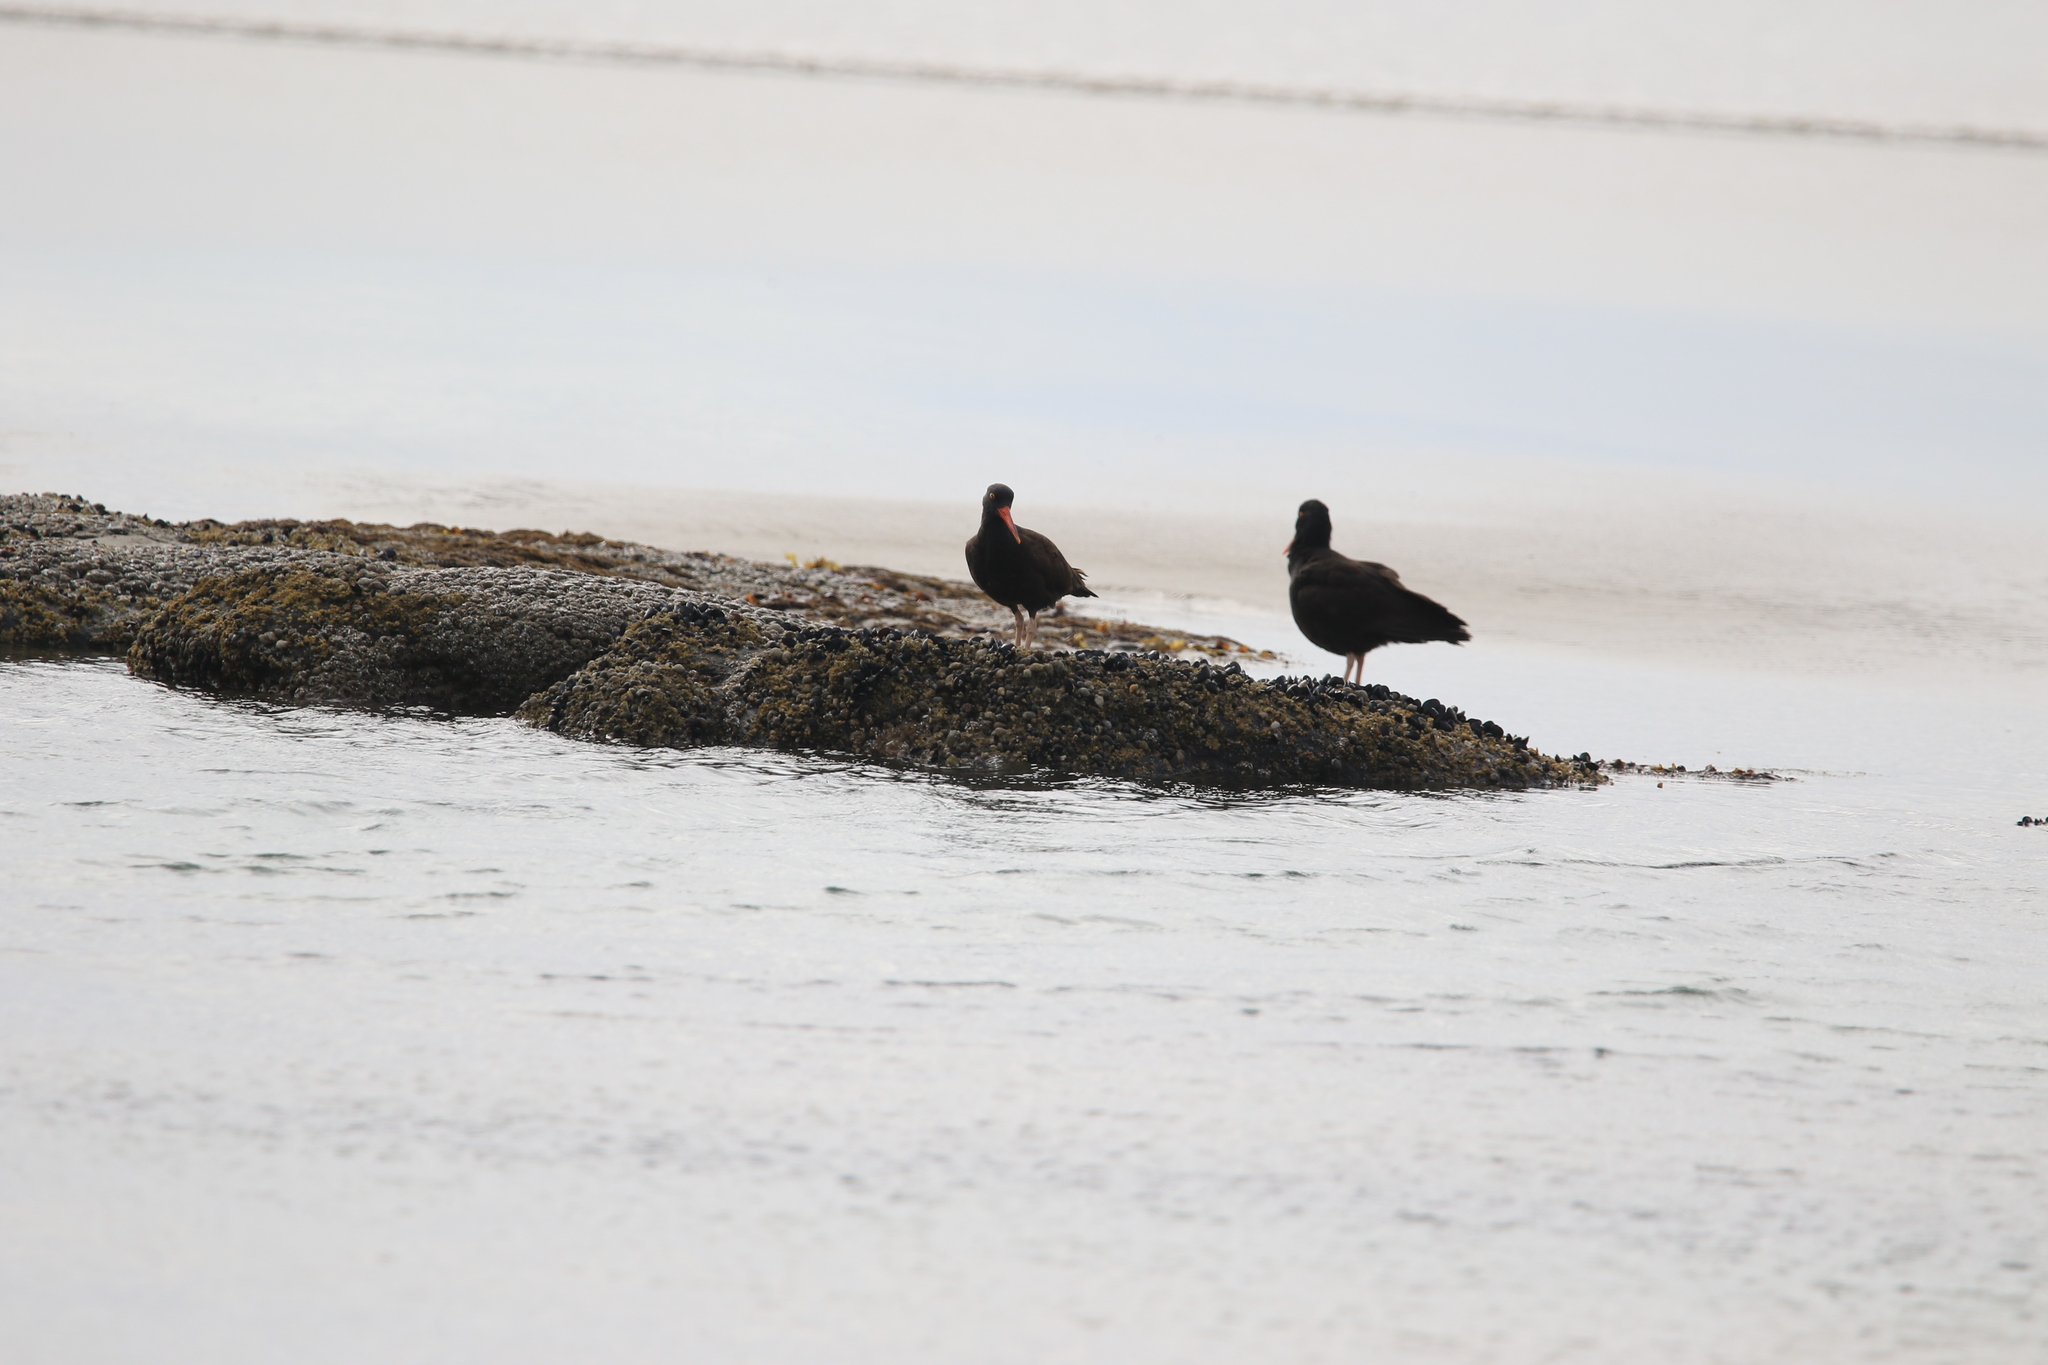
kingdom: Animalia
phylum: Chordata
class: Aves
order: Charadriiformes
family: Haematopodidae
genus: Haematopus
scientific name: Haematopus bachmani
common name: Black oystercatcher
